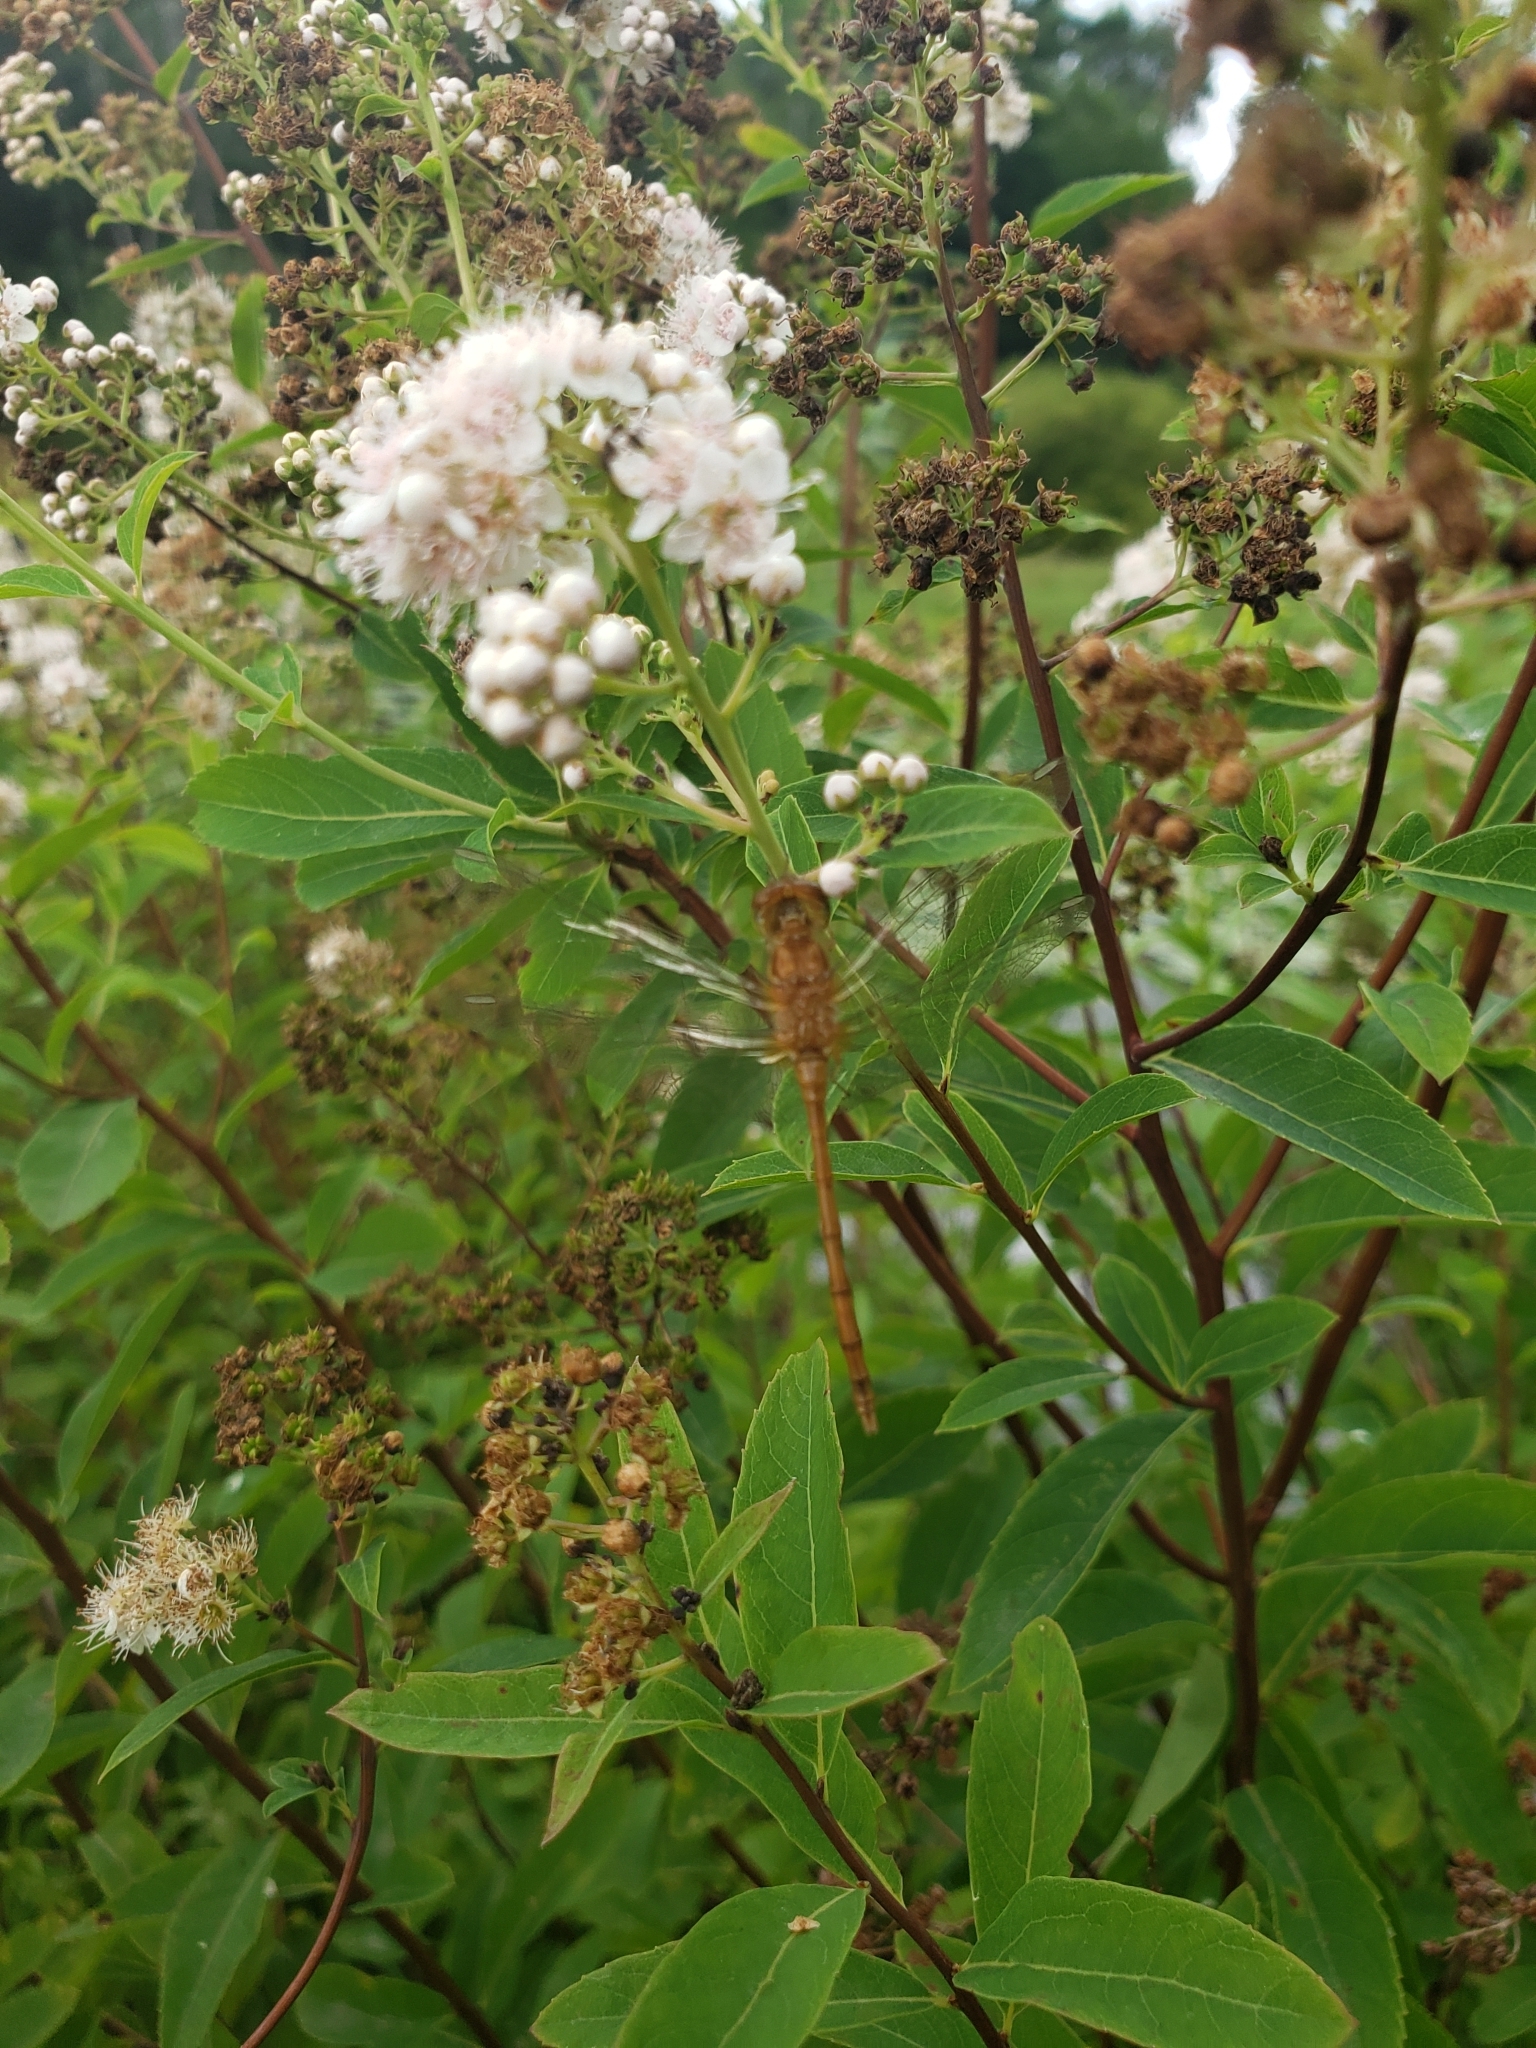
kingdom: Animalia
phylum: Arthropoda
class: Insecta
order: Odonata
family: Libellulidae
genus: Sympetrum
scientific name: Sympetrum vicinum
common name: Autumn meadowhawk
